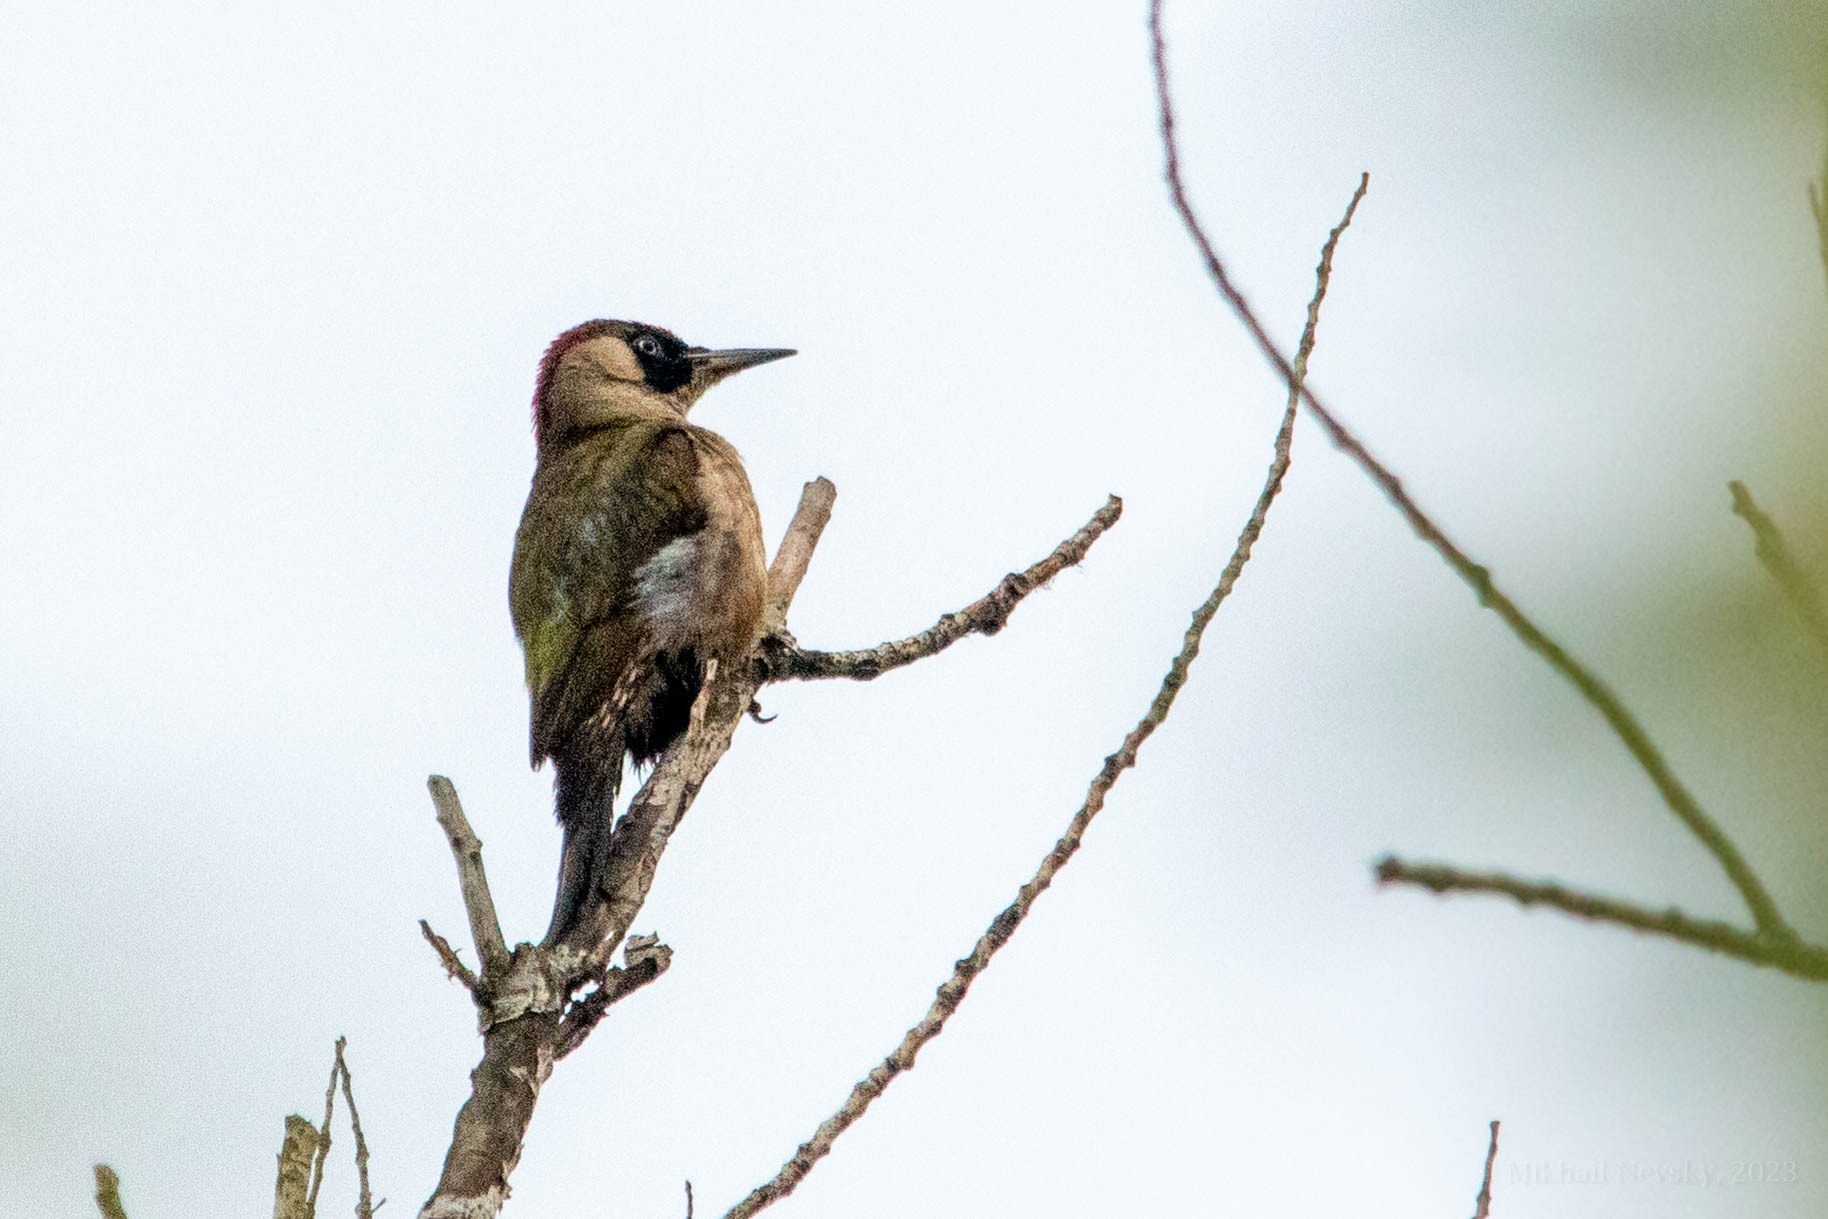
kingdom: Animalia
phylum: Chordata
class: Aves
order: Piciformes
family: Picidae
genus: Picus
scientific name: Picus viridis
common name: European green woodpecker
